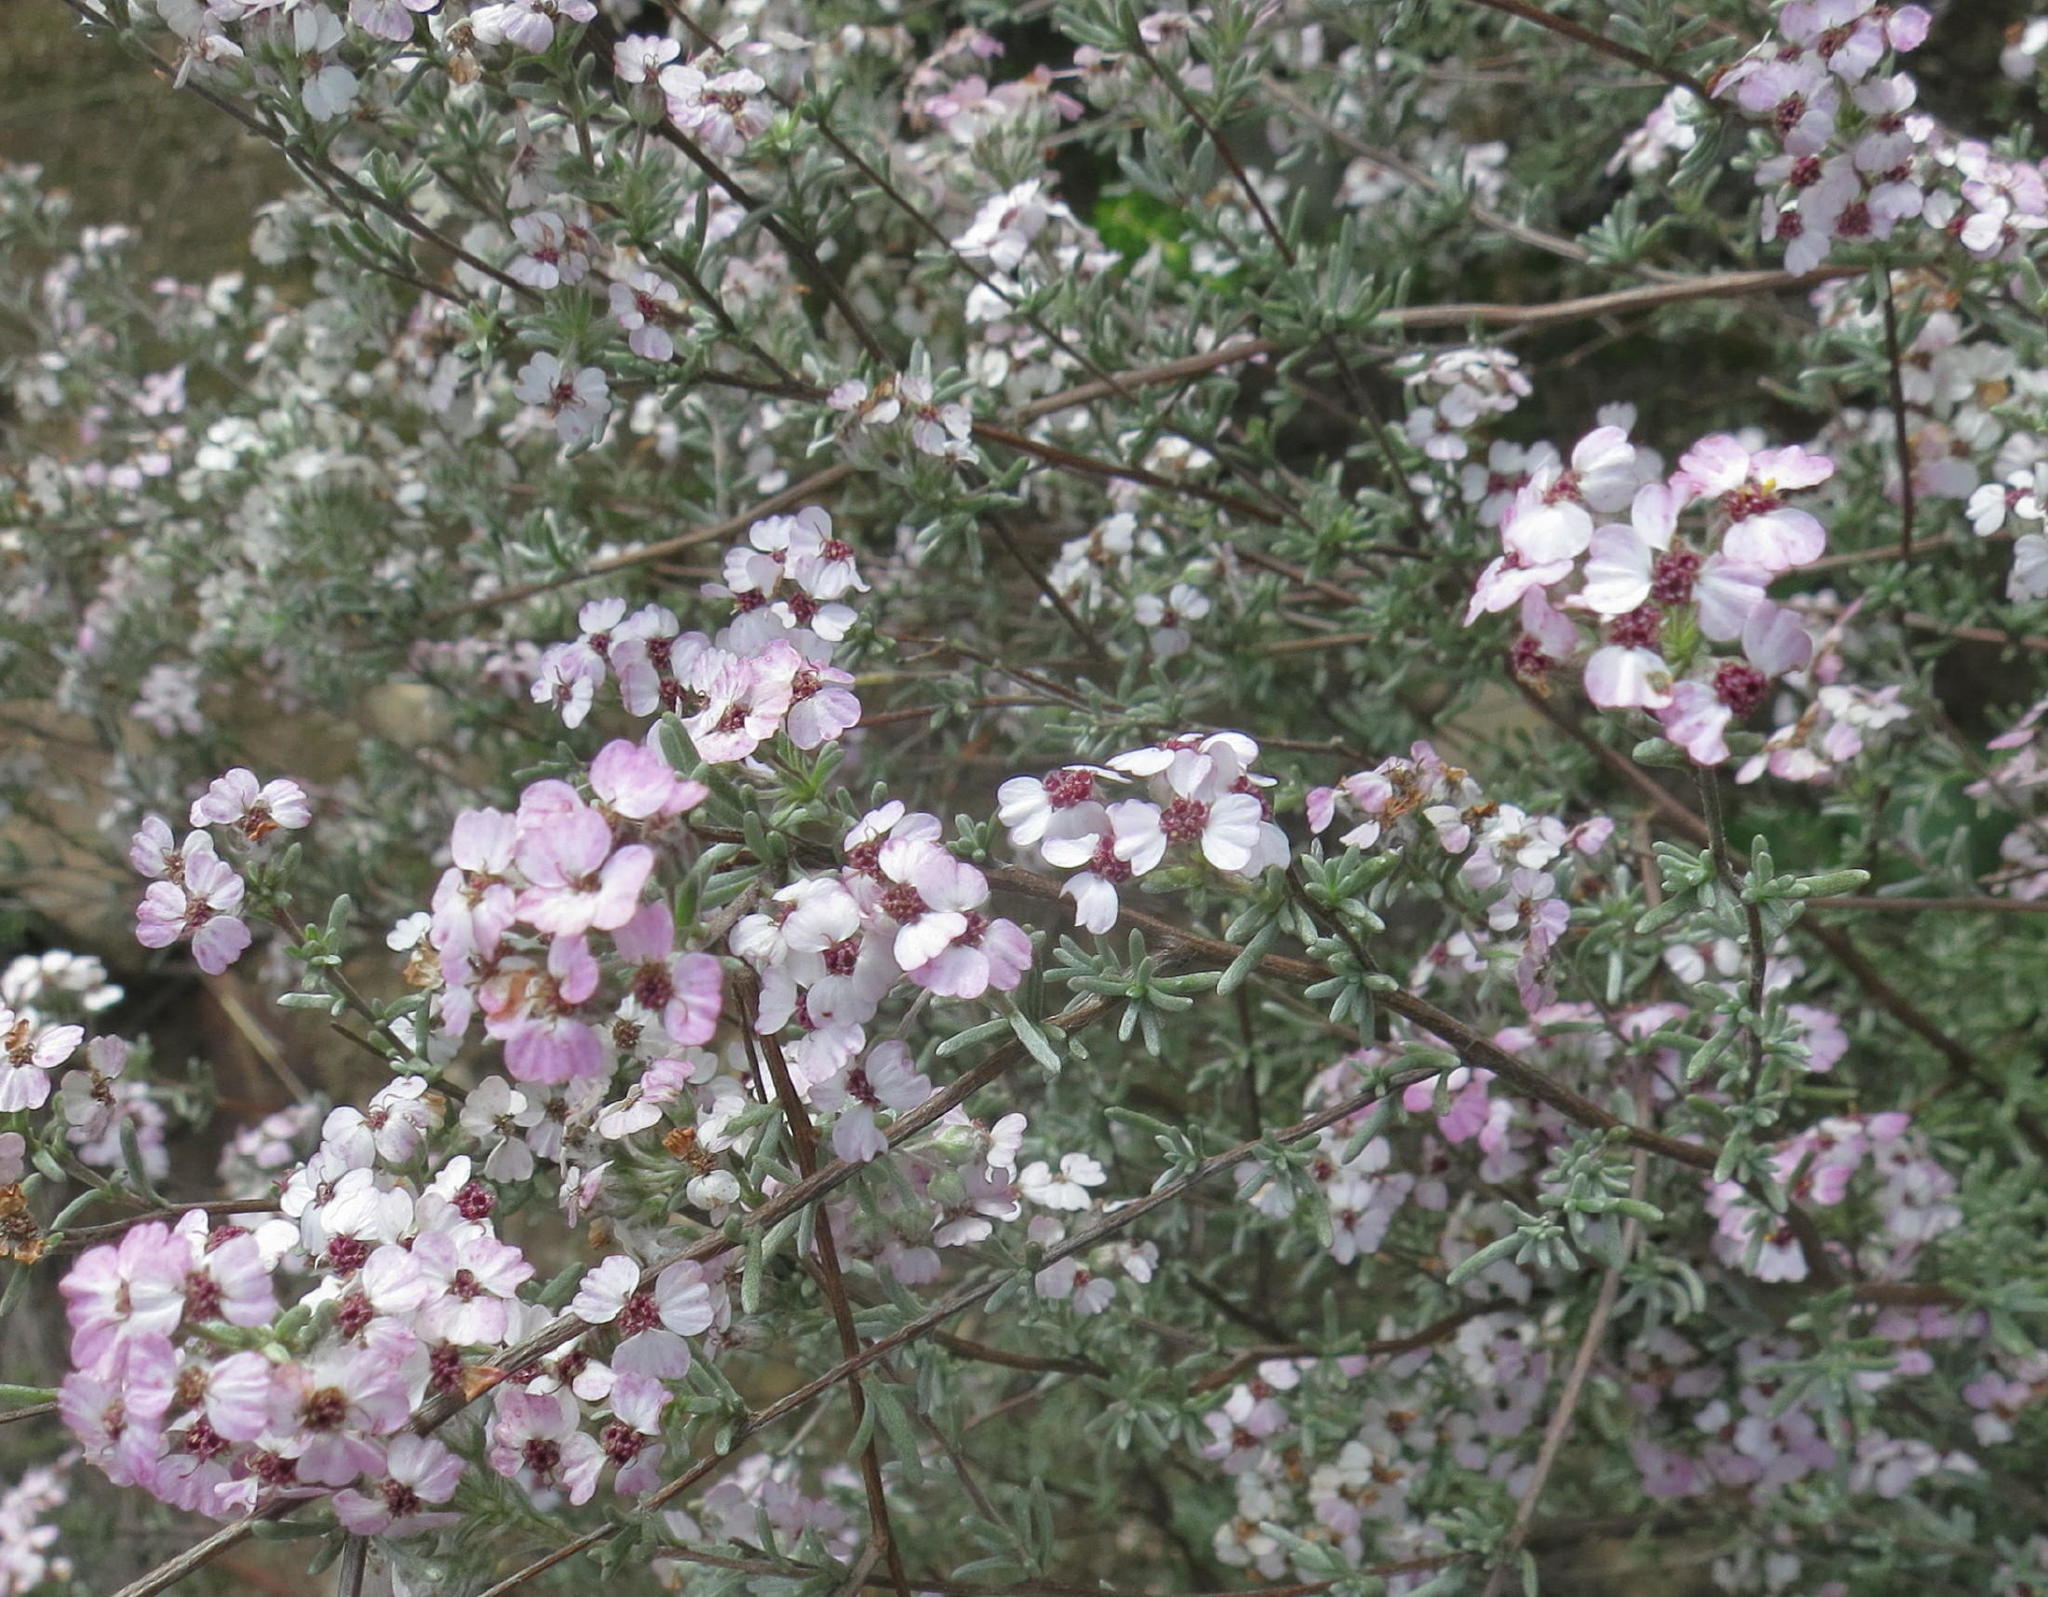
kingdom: Plantae
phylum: Tracheophyta
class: Magnoliopsida
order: Asterales
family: Asteraceae
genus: Eriocephalus
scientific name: Eriocephalus africanus
